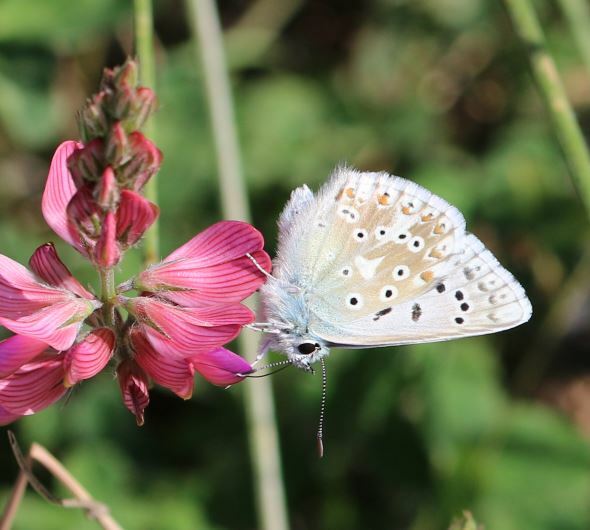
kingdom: Animalia
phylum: Arthropoda
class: Insecta
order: Lepidoptera
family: Lycaenidae
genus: Lysandra
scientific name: Lysandra coridon
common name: Chalkhill blue
